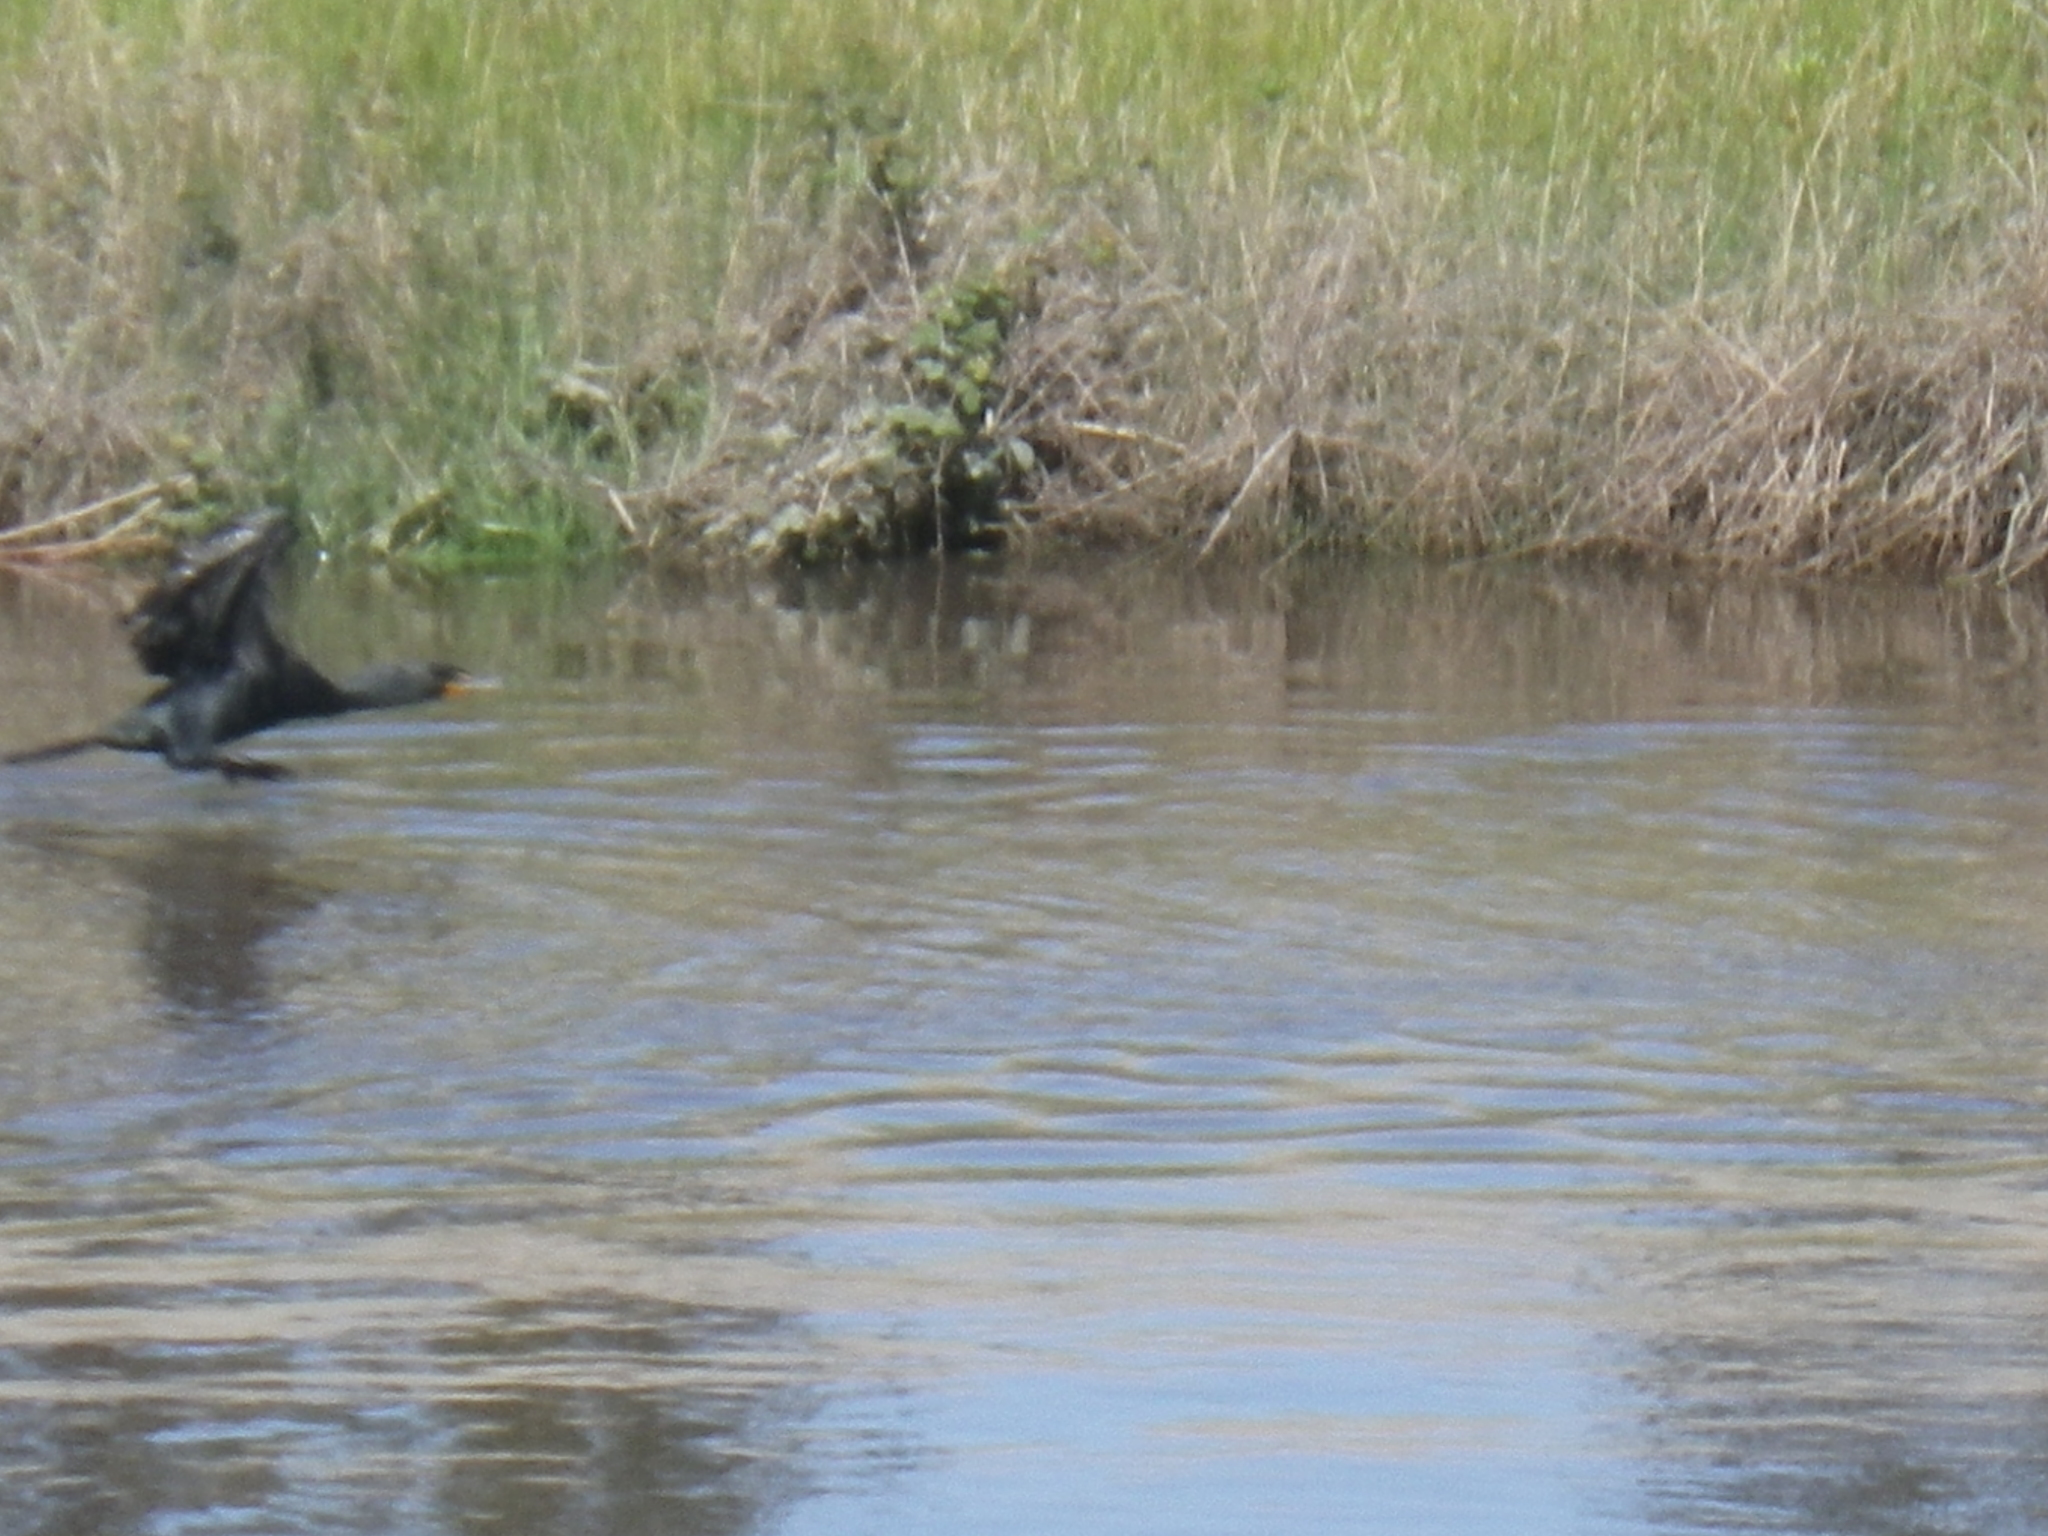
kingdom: Animalia
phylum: Chordata
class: Aves
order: Suliformes
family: Phalacrocoracidae
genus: Phalacrocorax
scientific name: Phalacrocorax auritus
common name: Double-crested cormorant
